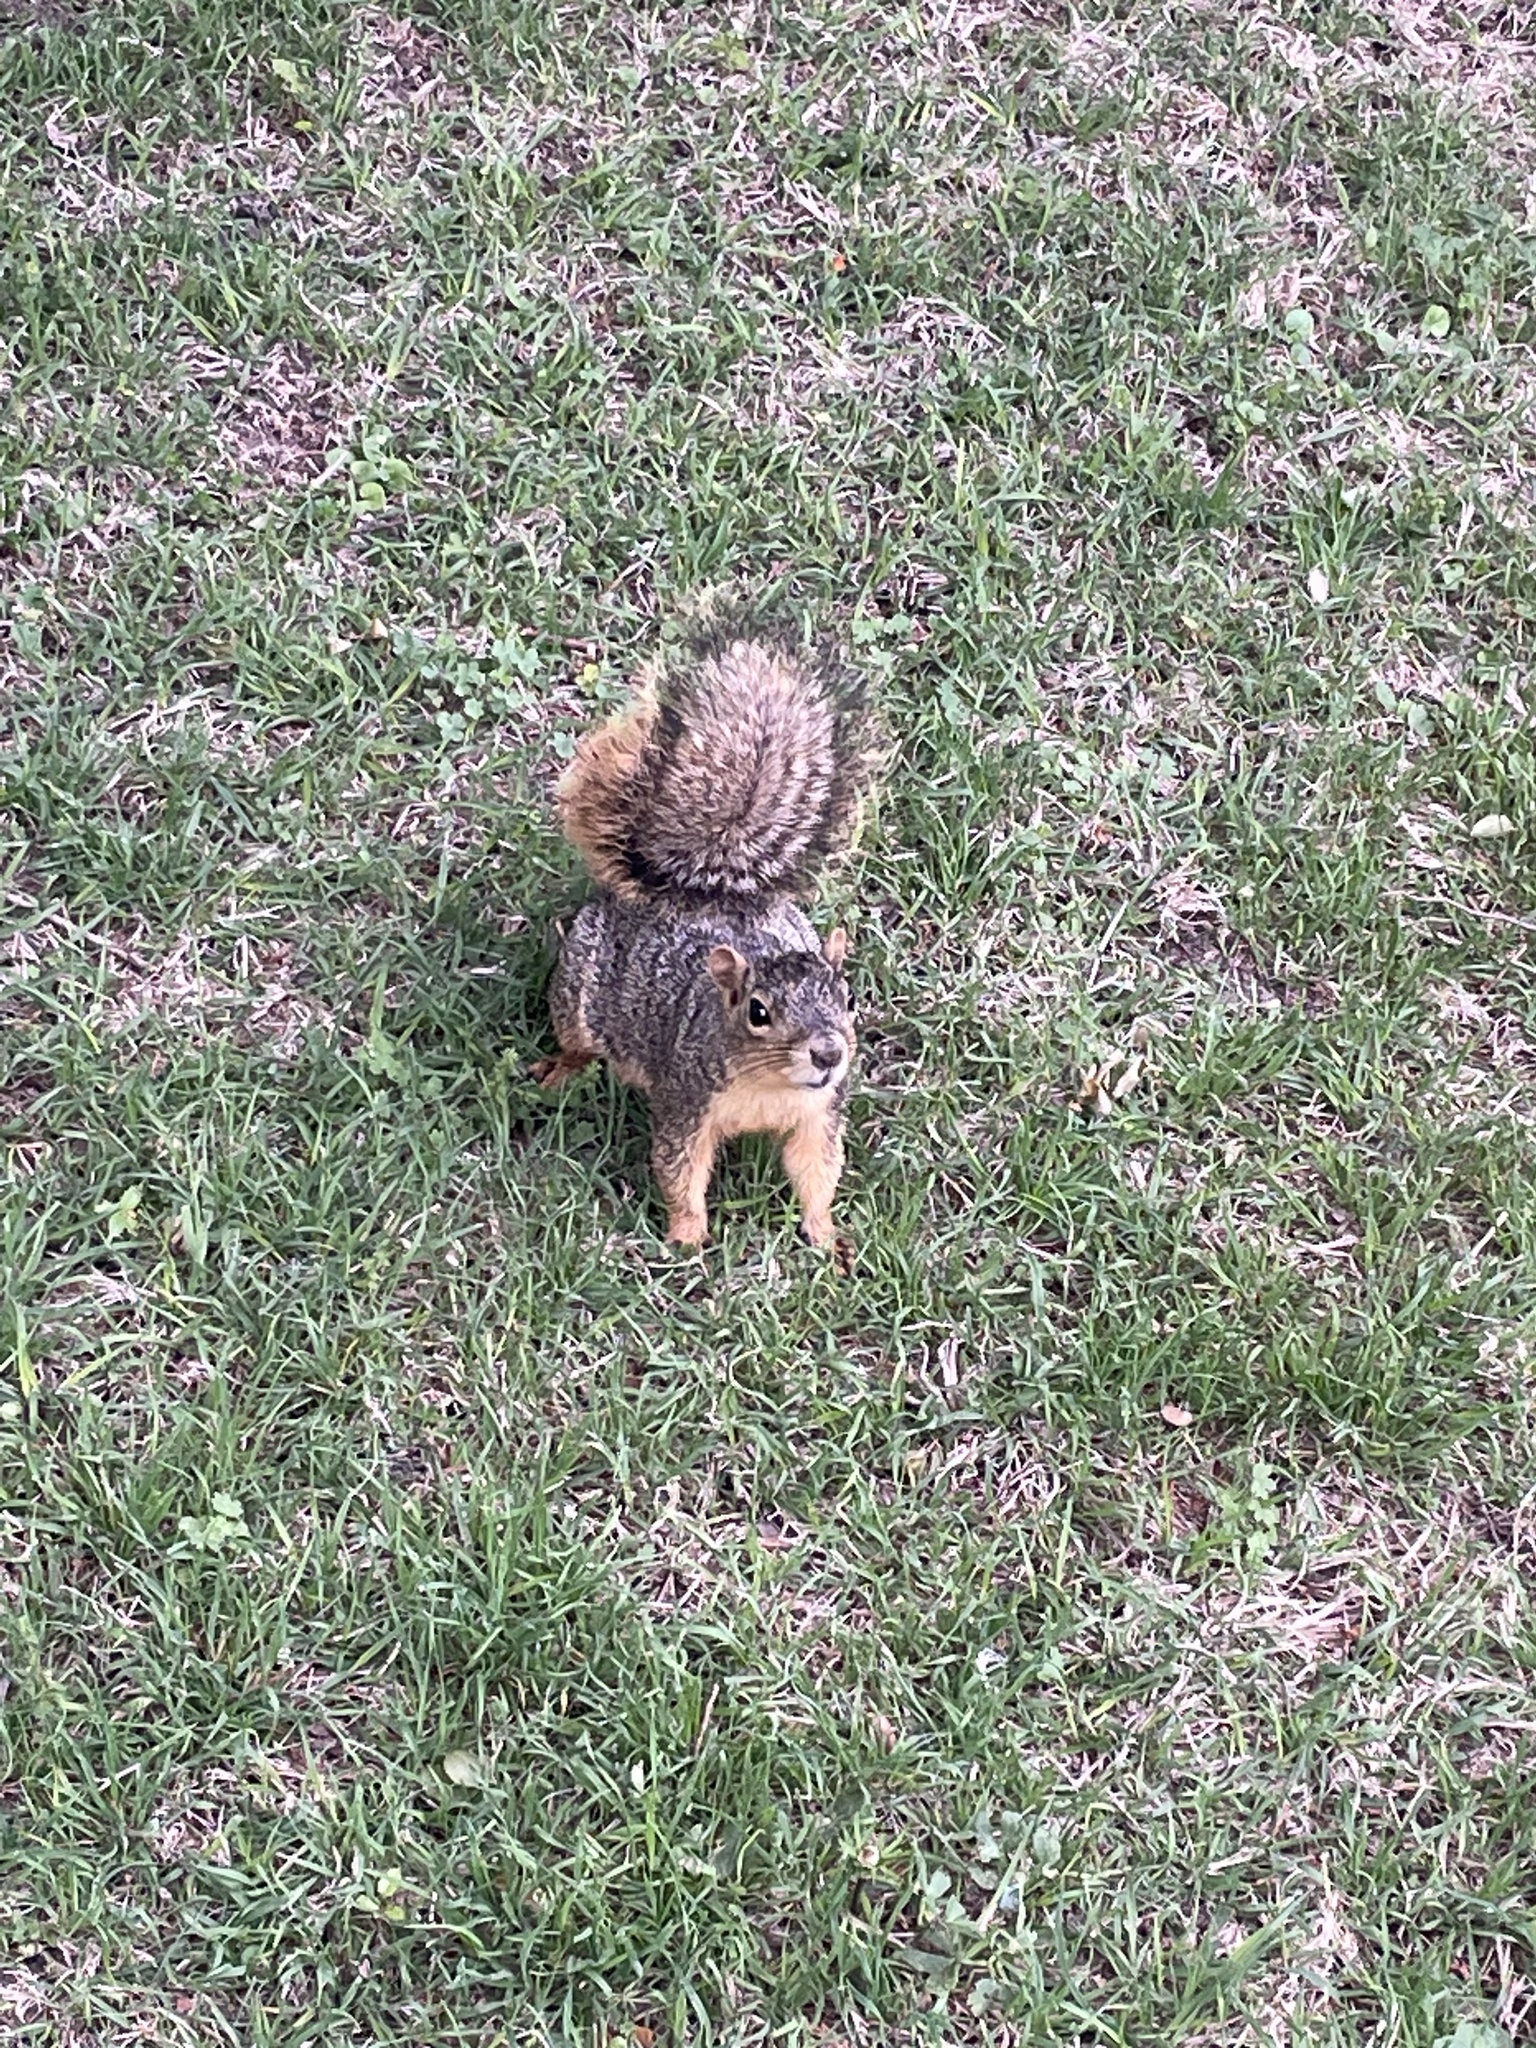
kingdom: Animalia
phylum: Chordata
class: Mammalia
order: Rodentia
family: Sciuridae
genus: Sciurus
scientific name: Sciurus niger
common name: Fox squirrel
